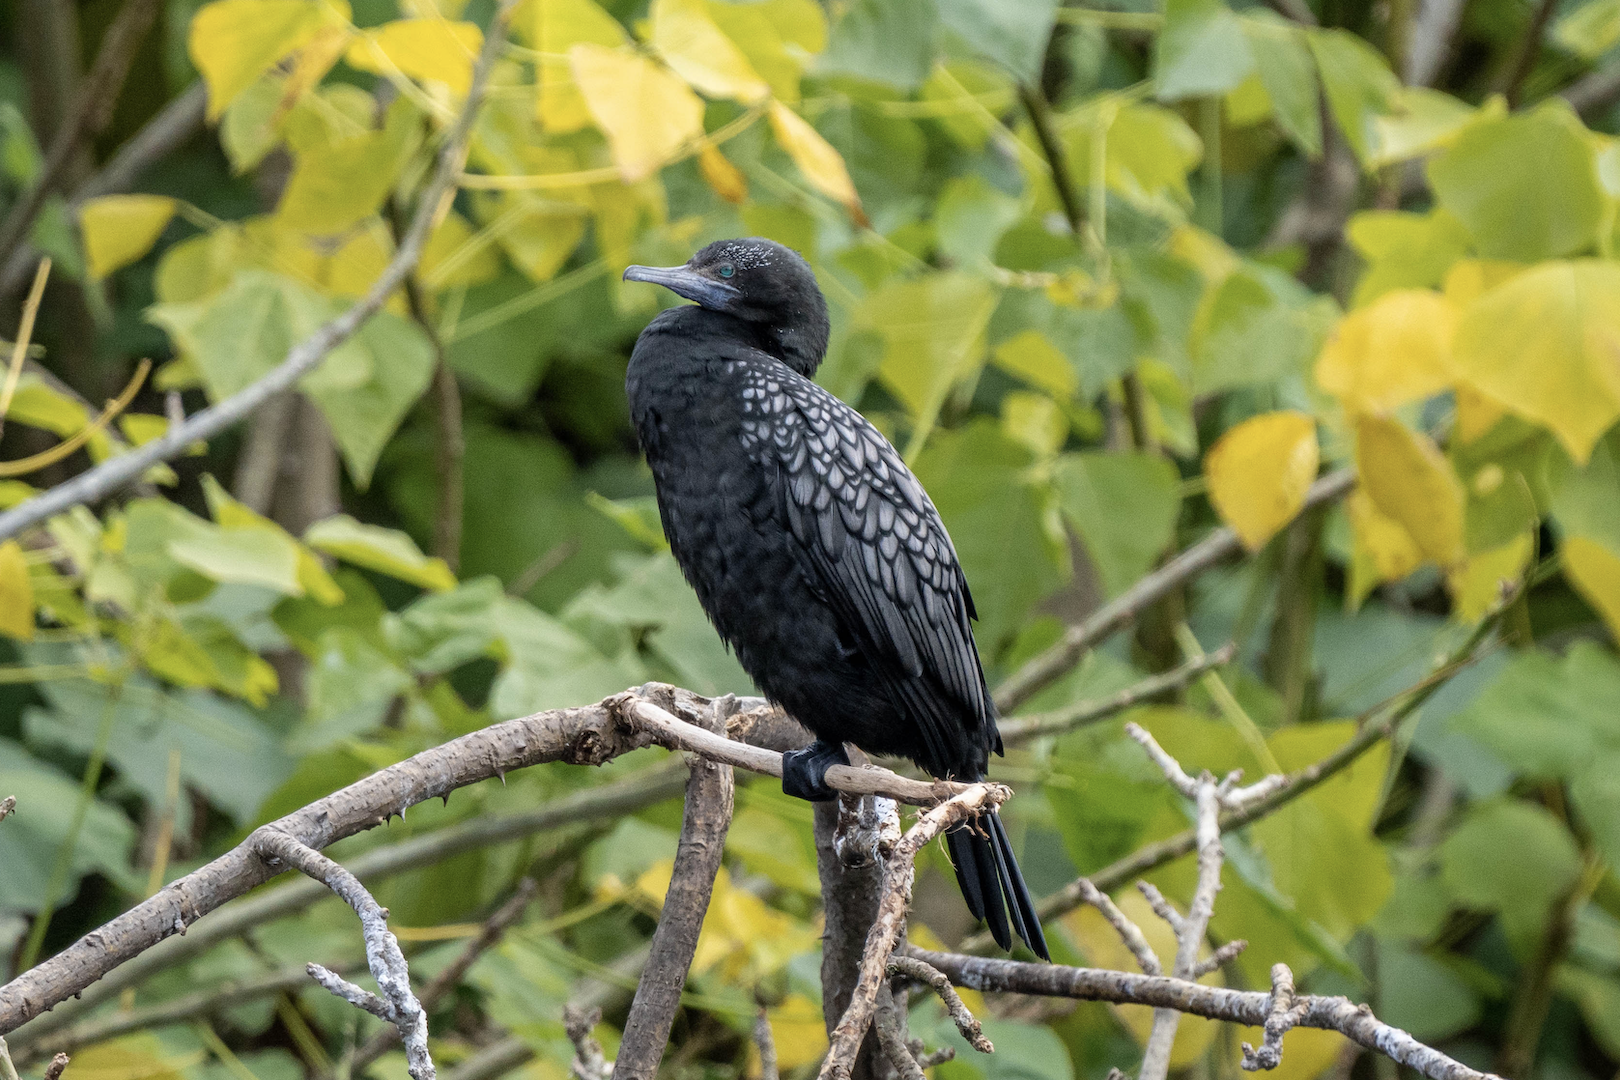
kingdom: Animalia
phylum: Chordata
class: Aves
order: Suliformes
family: Phalacrocoracidae
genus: Phalacrocorax
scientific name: Phalacrocorax sulcirostris
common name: Little black cormorant
